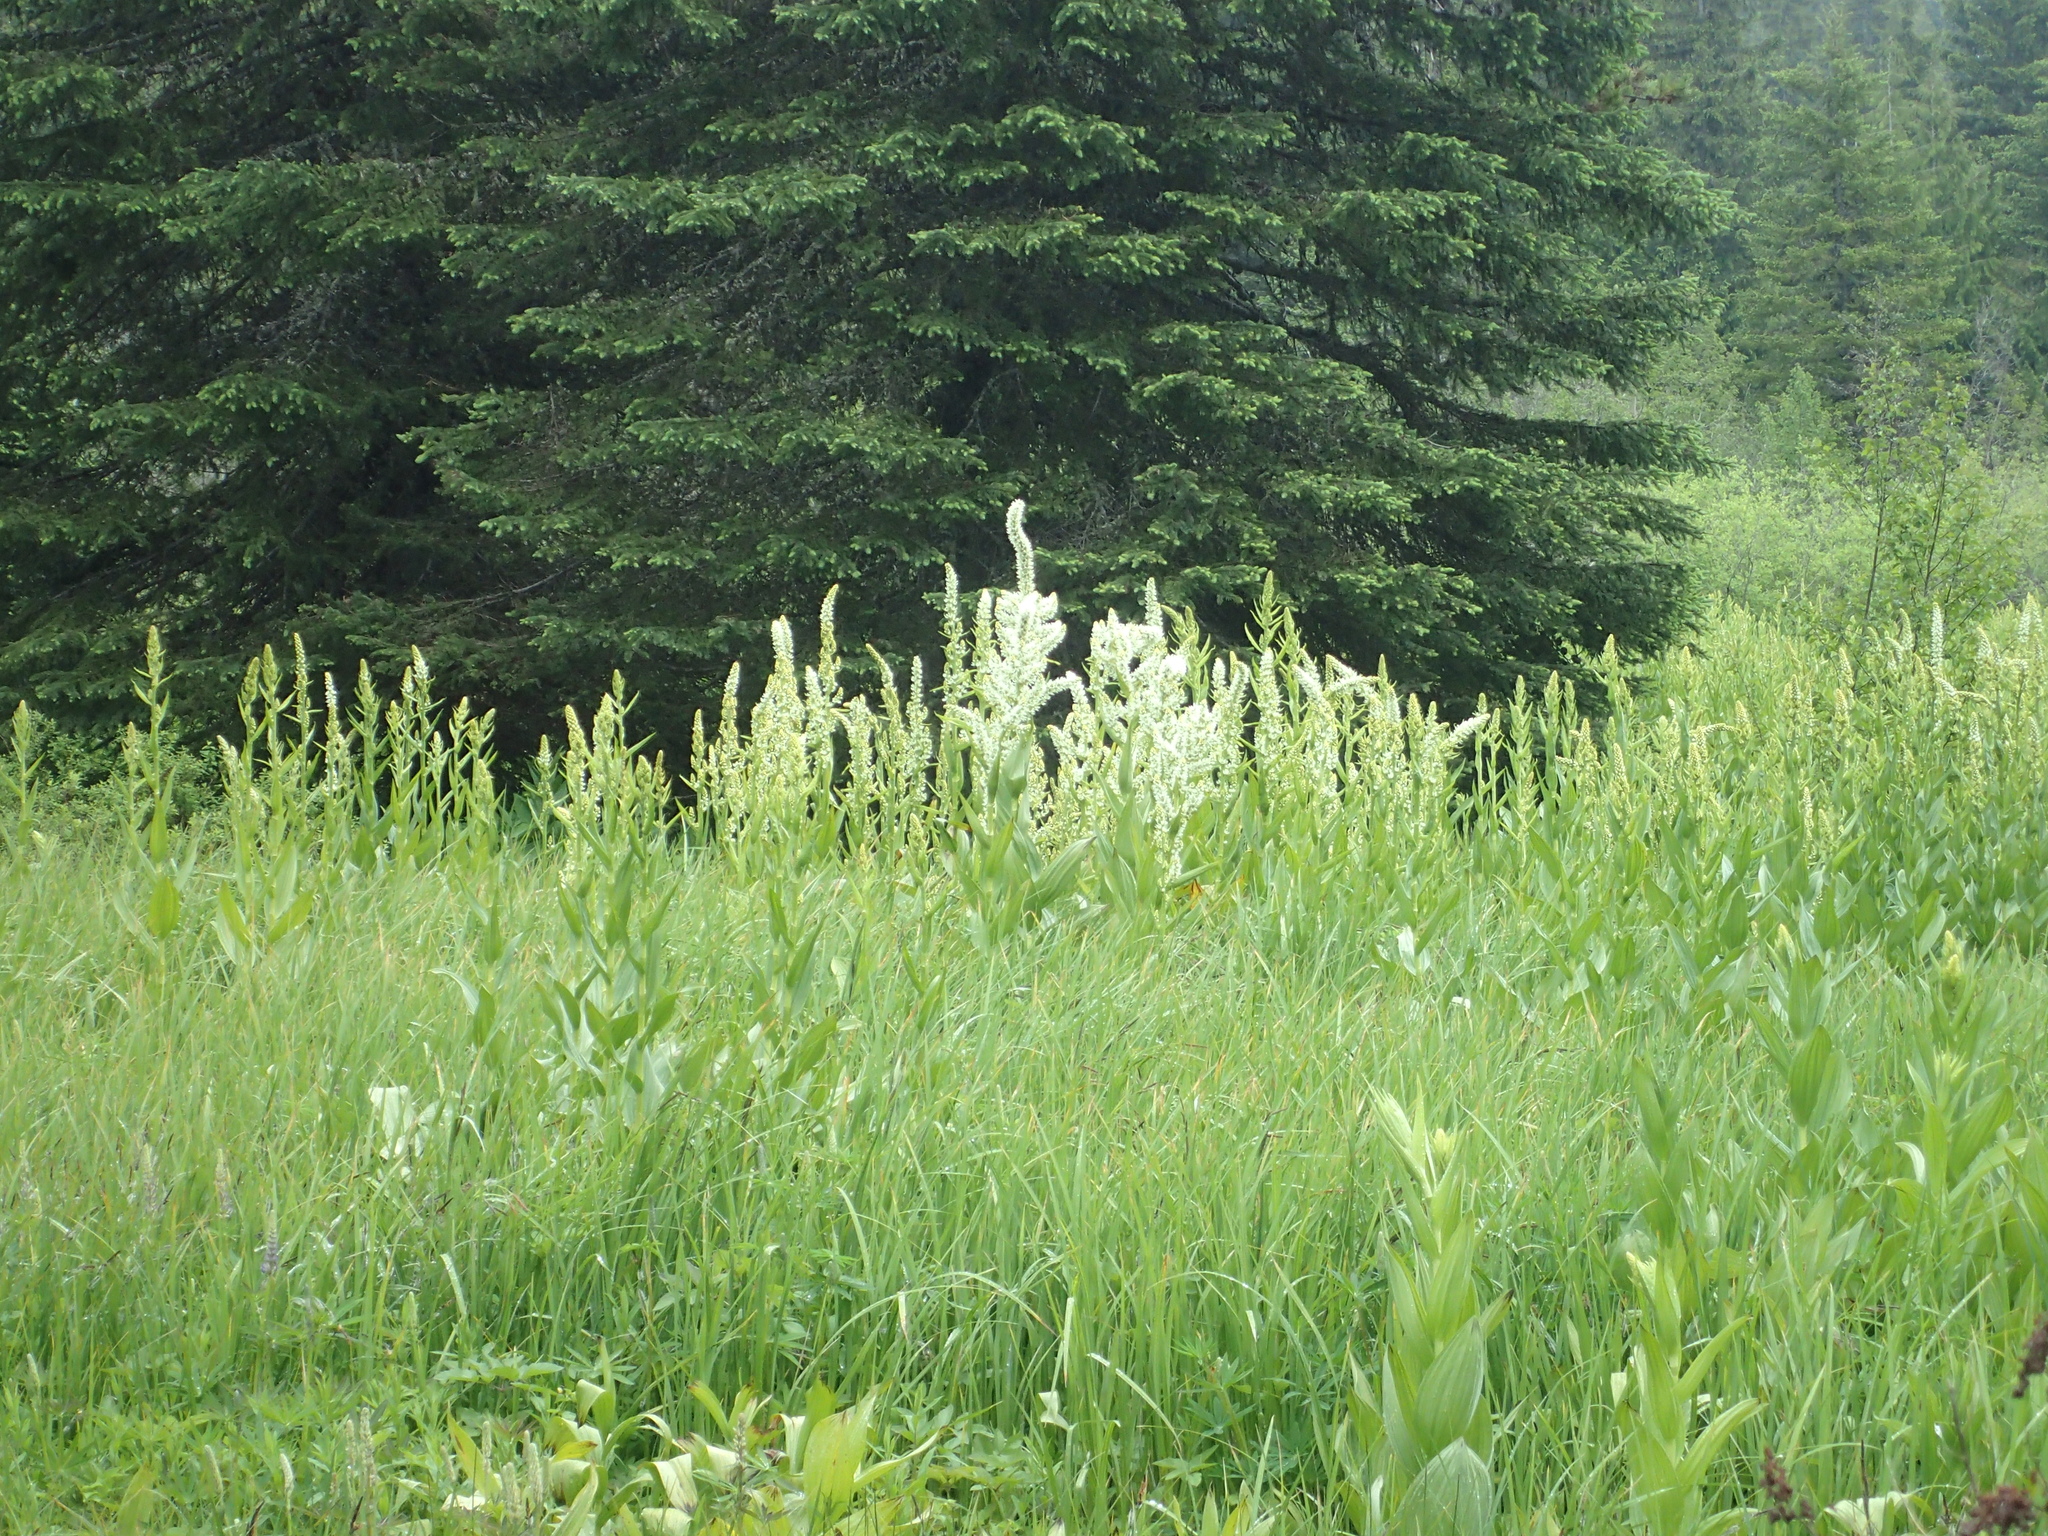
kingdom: Plantae
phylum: Tracheophyta
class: Liliopsida
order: Liliales
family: Melanthiaceae
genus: Veratrum
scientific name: Veratrum californicum
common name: California veratrum
